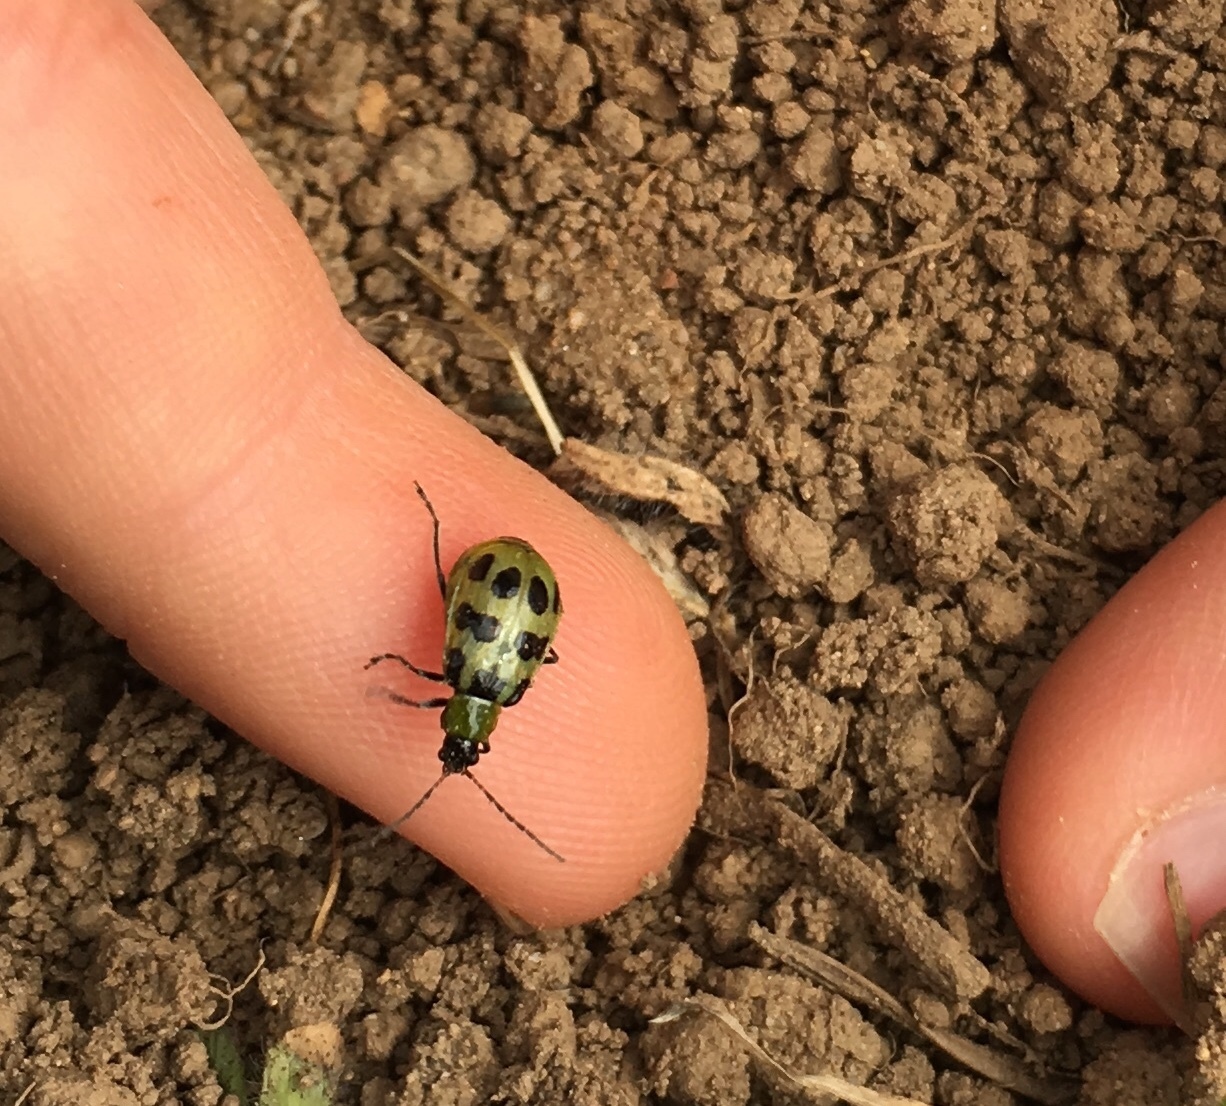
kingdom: Animalia
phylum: Arthropoda
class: Insecta
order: Coleoptera
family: Chrysomelidae
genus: Diabrotica
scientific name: Diabrotica undecimpunctata
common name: Spotted cucumber beetle
